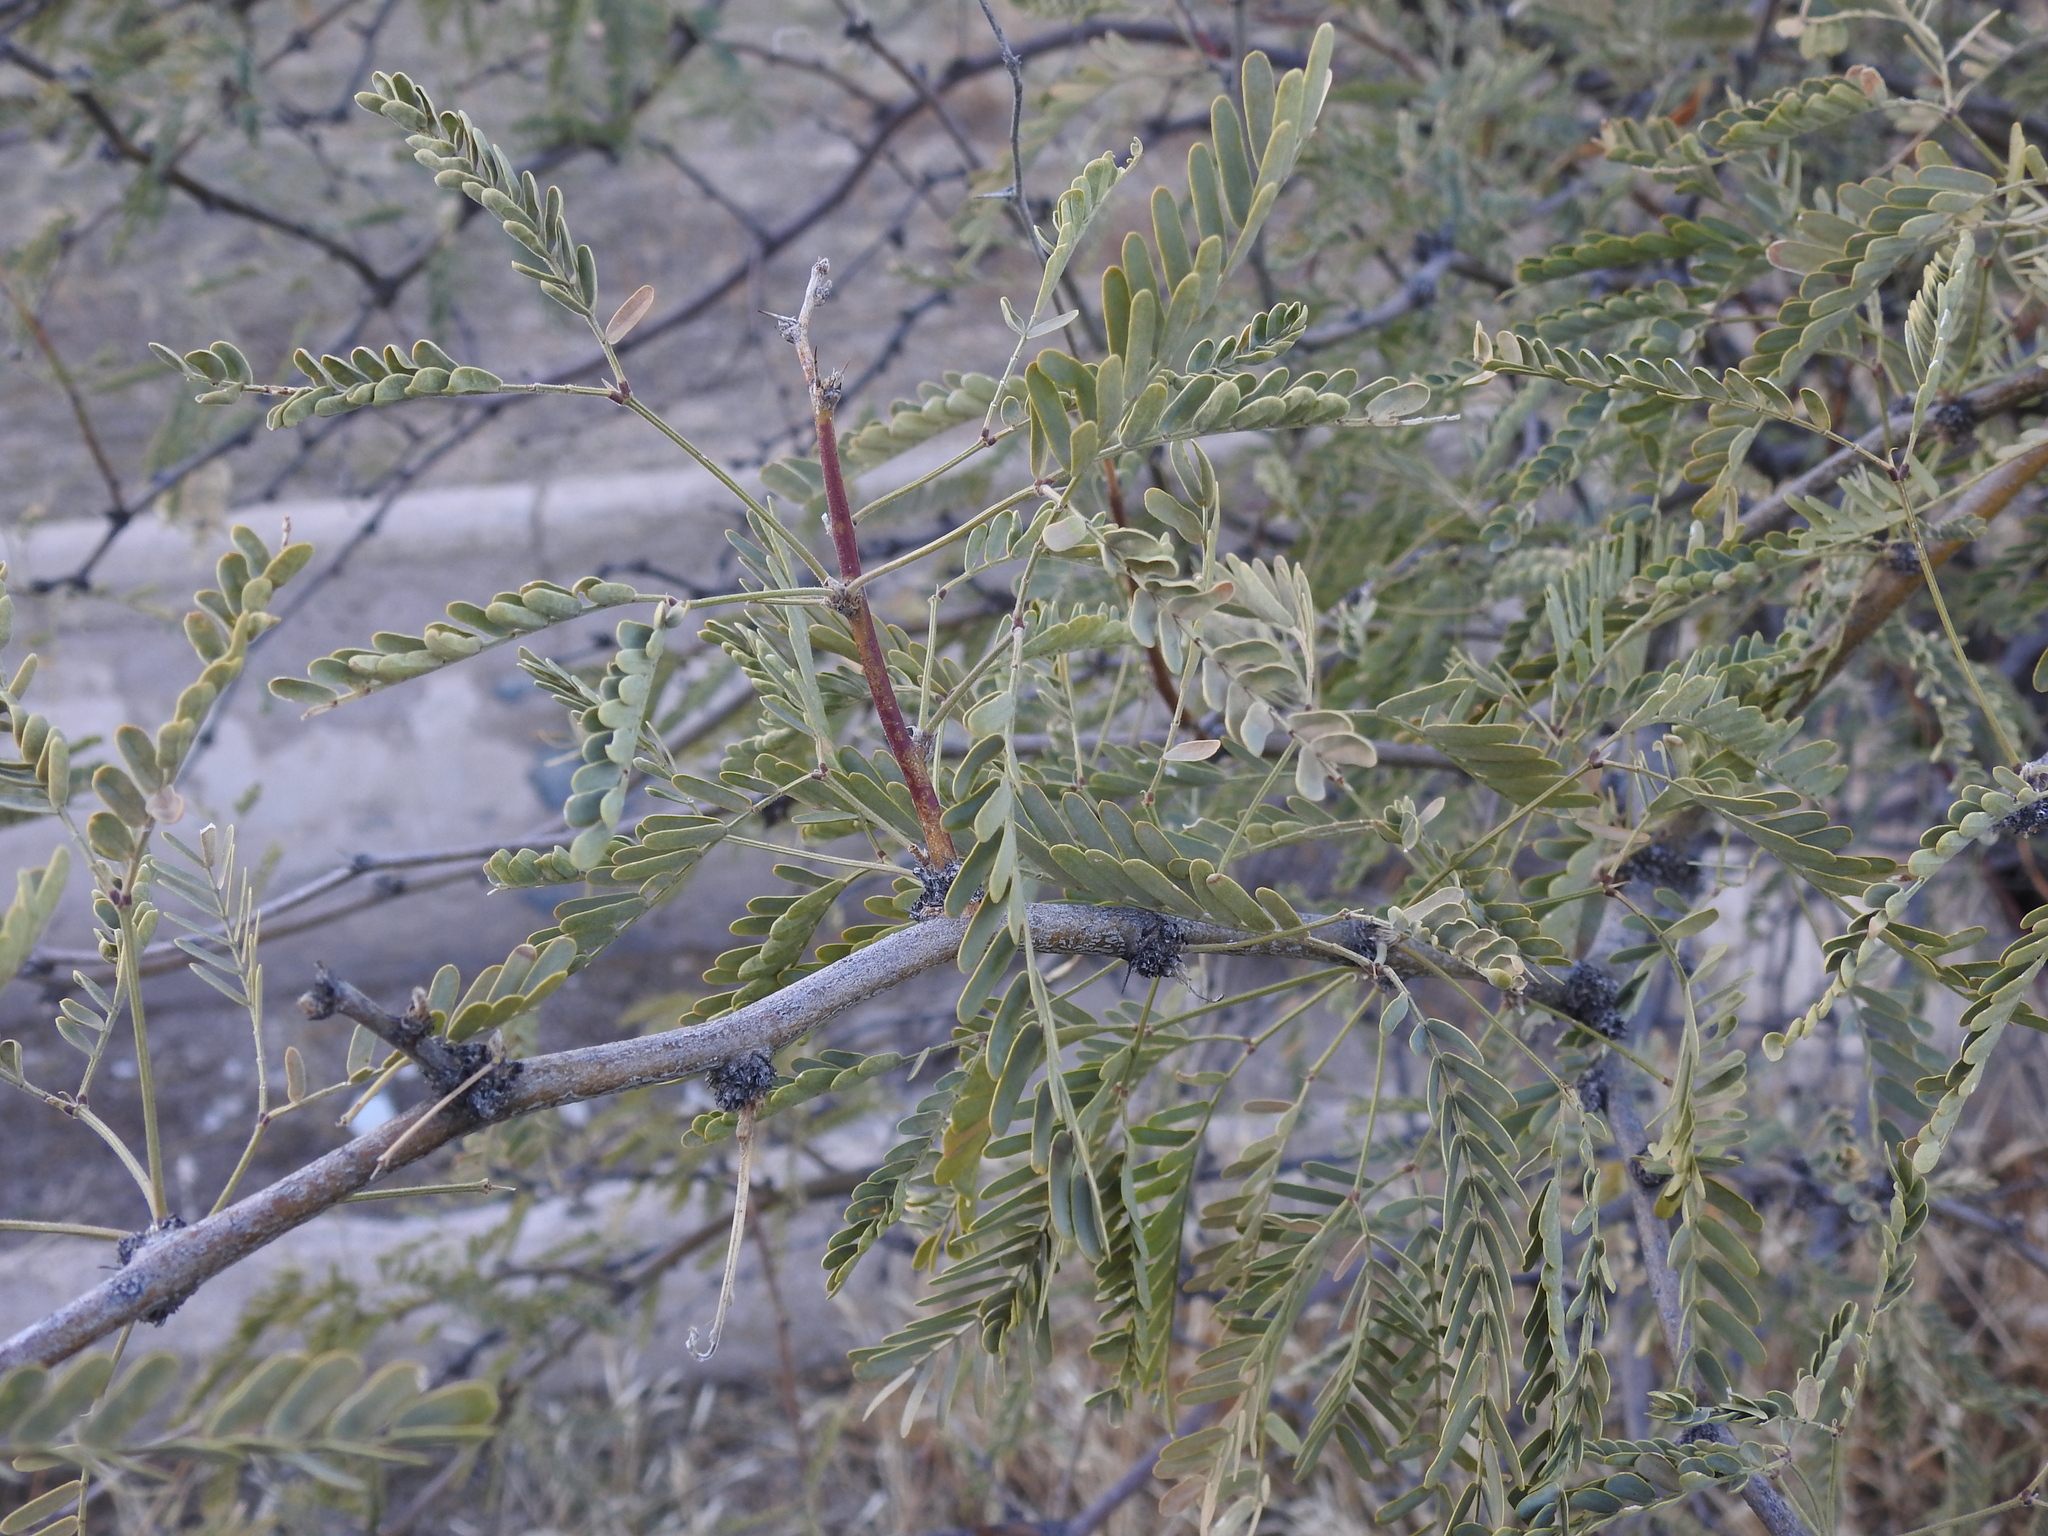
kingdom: Plantae
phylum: Tracheophyta
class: Magnoliopsida
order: Fabales
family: Fabaceae
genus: Prosopis
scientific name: Prosopis velutina
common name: Velvet mesquite
